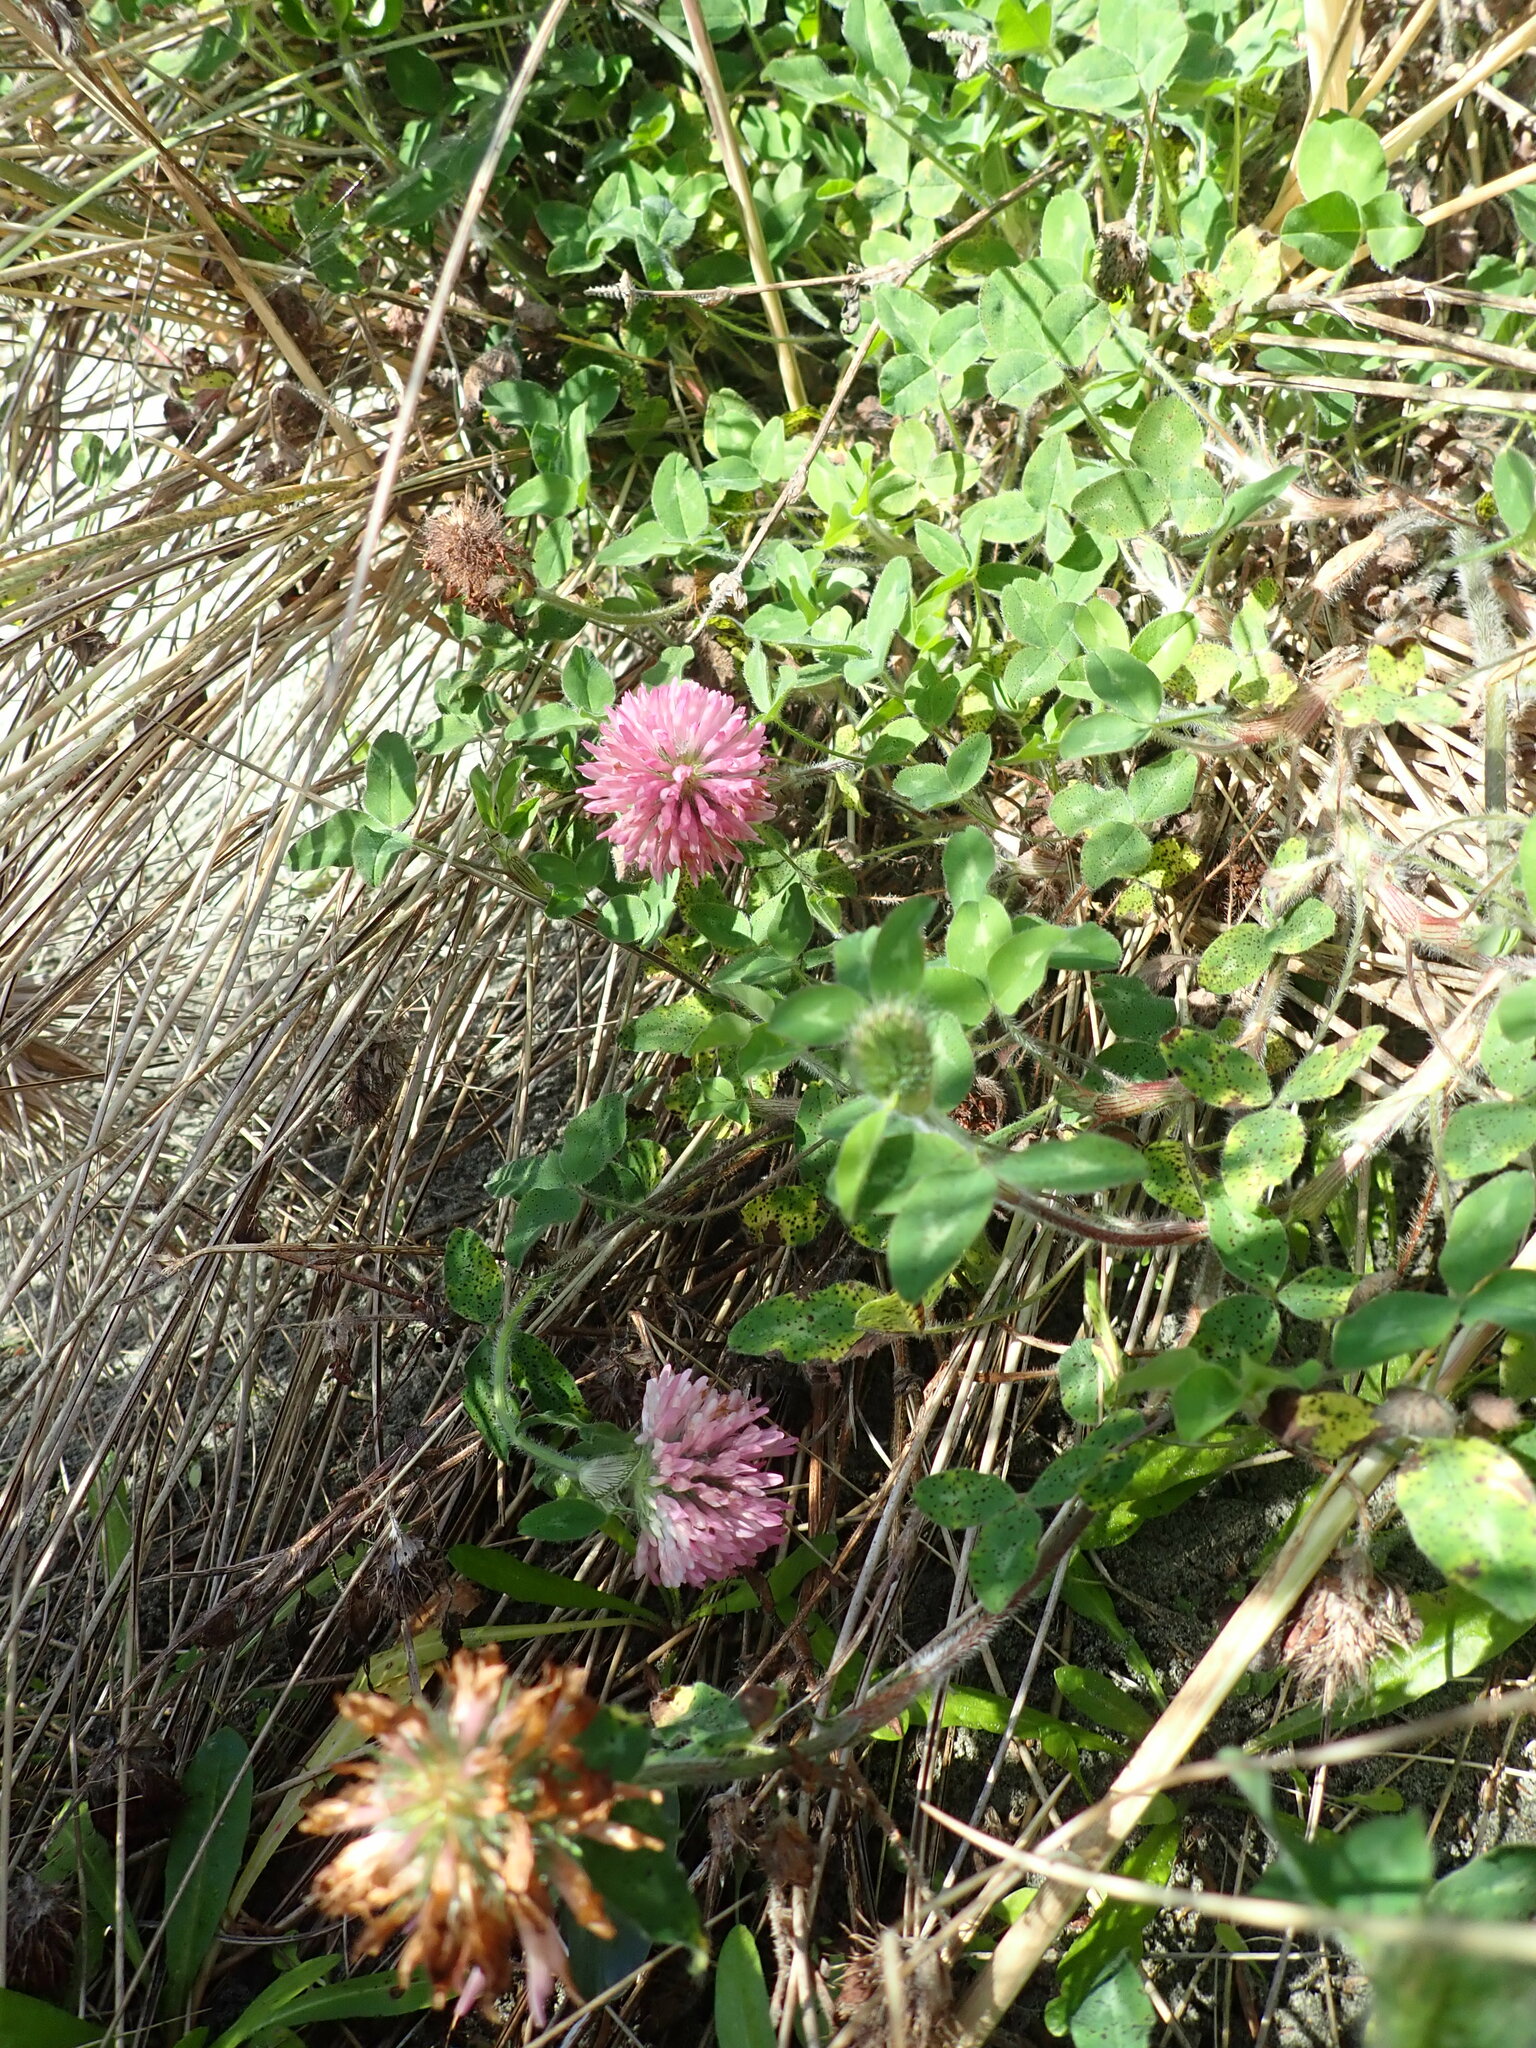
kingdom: Plantae
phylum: Tracheophyta
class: Magnoliopsida
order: Fabales
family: Fabaceae
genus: Trifolium
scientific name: Trifolium pratense
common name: Red clover
